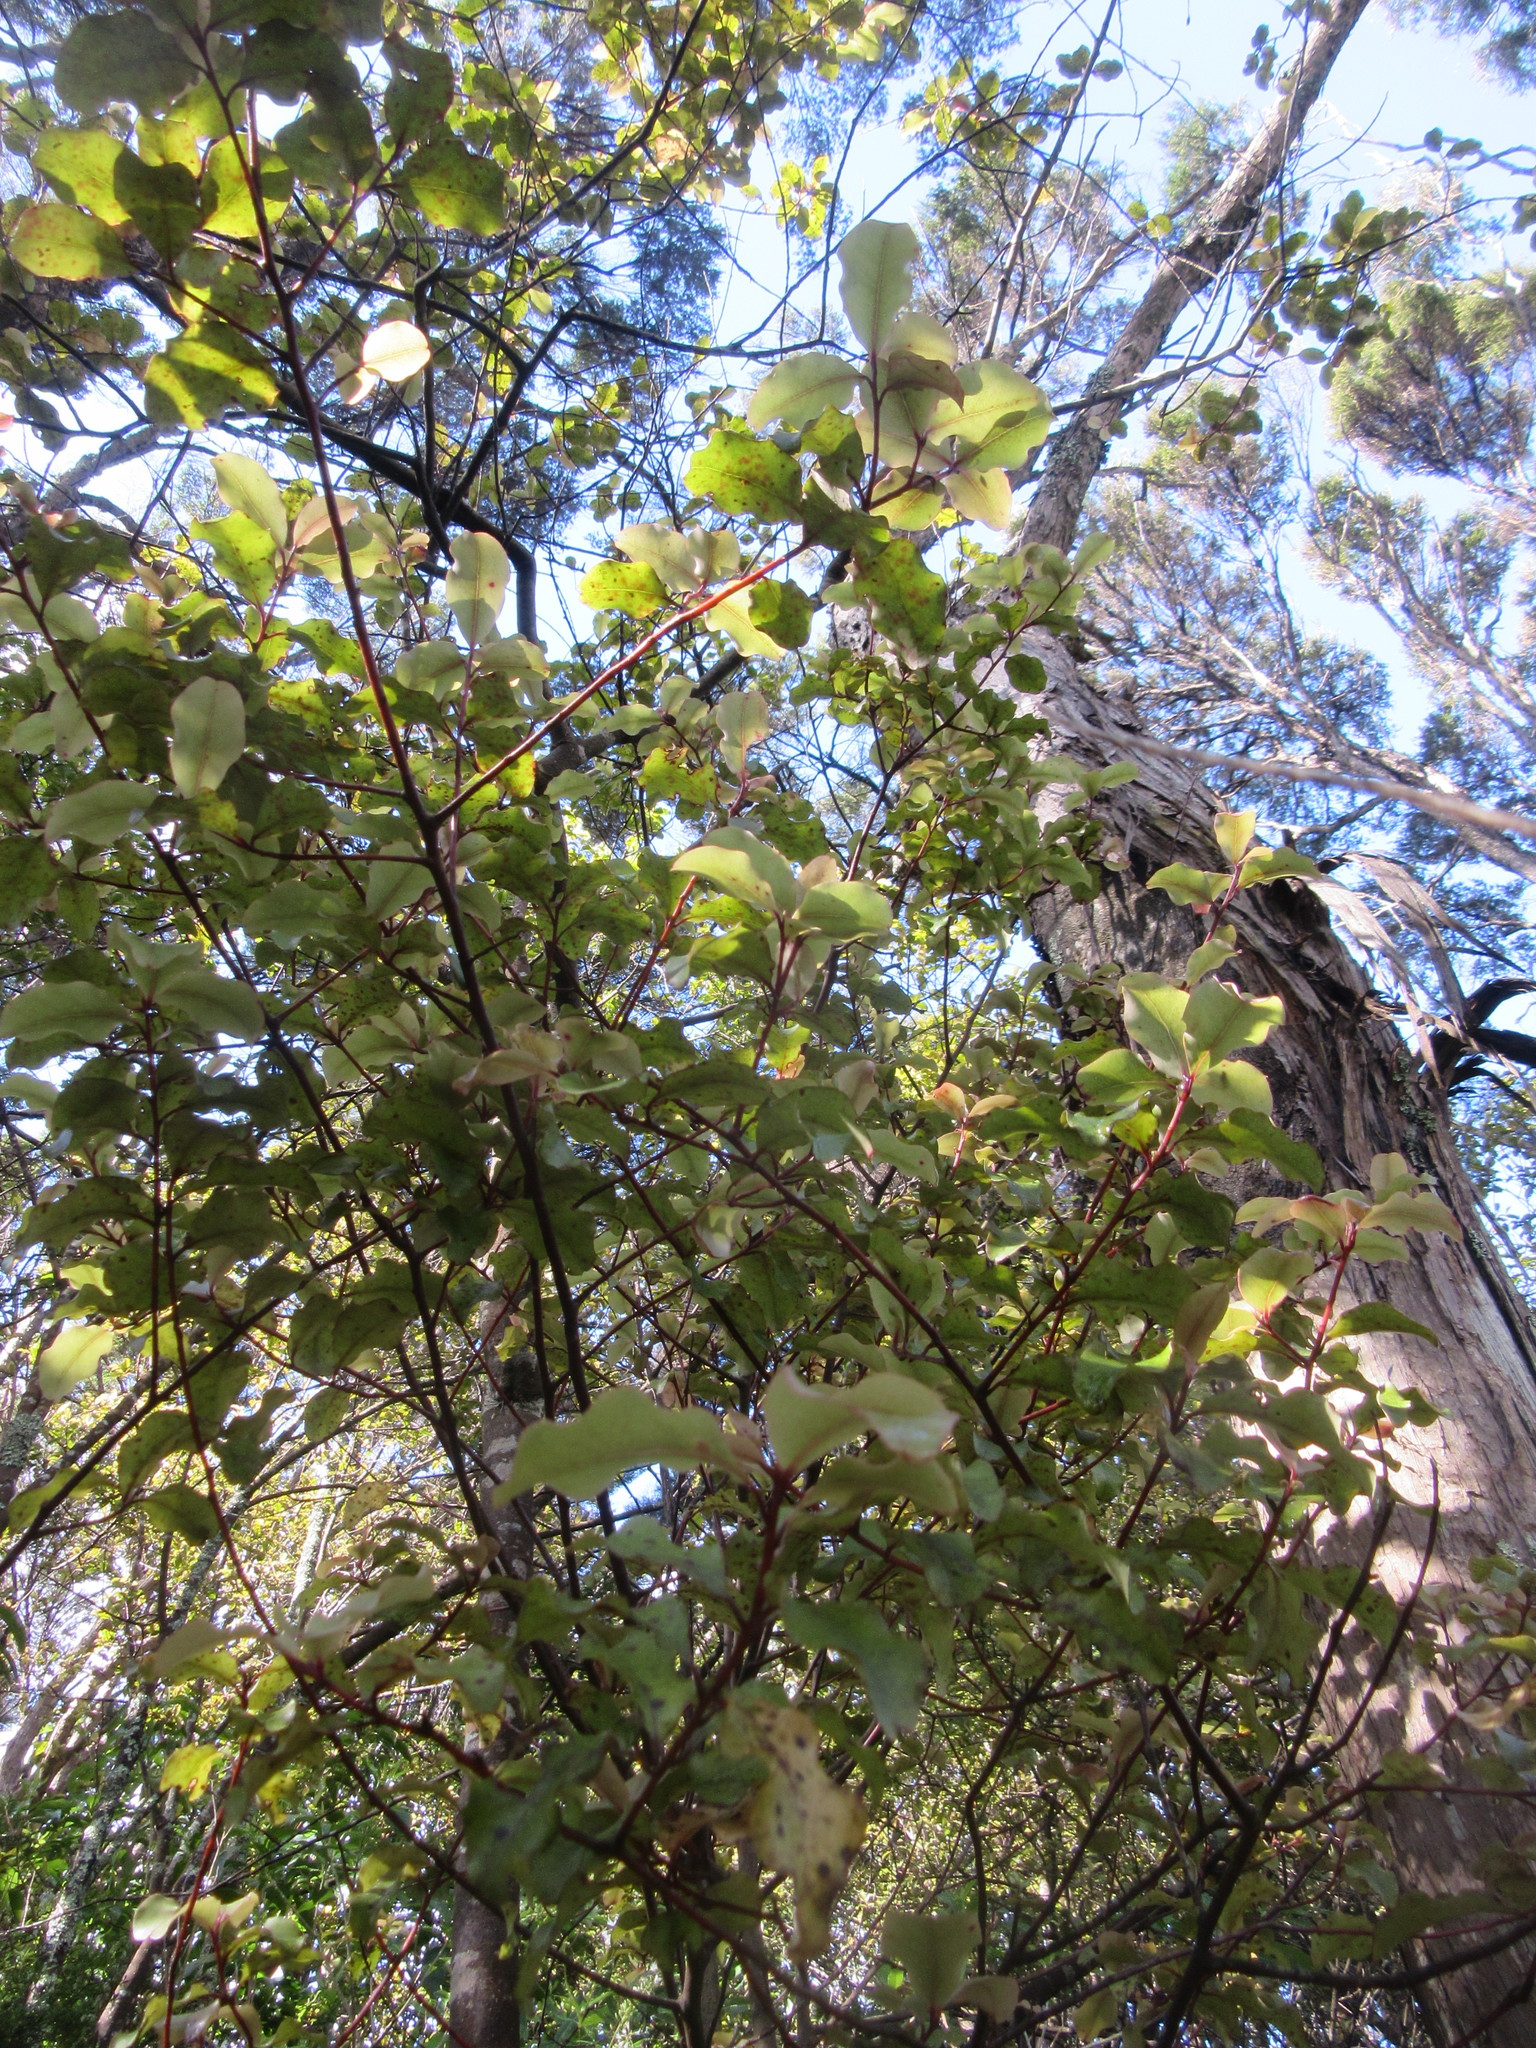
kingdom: Plantae
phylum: Tracheophyta
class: Magnoliopsida
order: Ericales
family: Primulaceae
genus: Myrsine
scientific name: Myrsine australis
